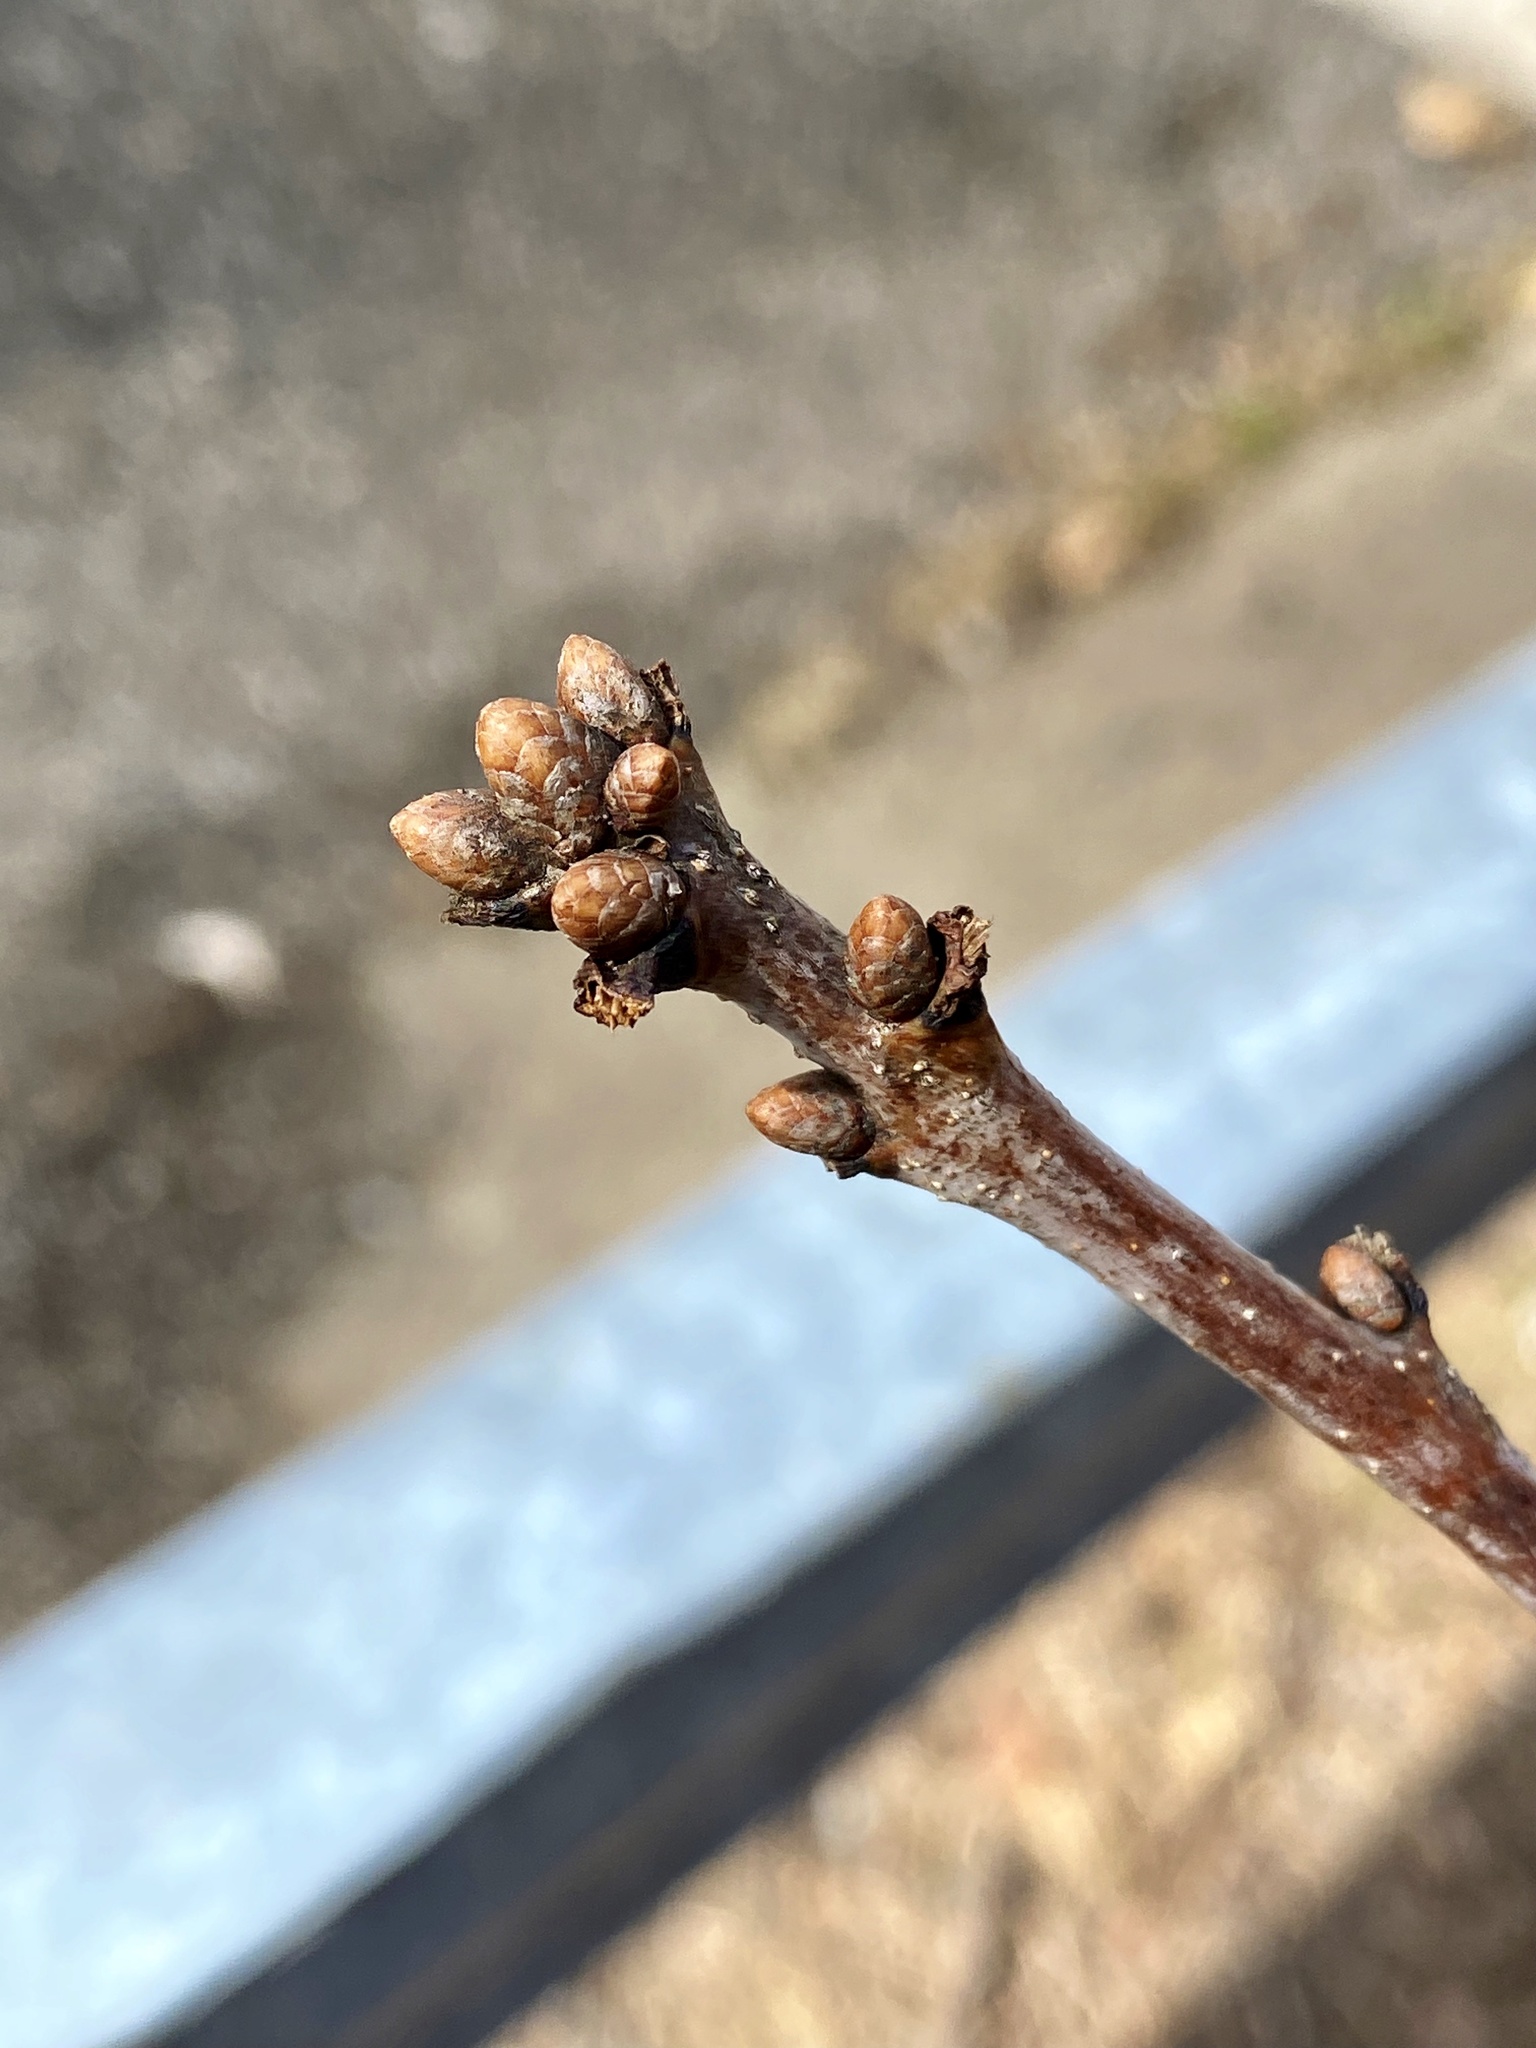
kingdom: Plantae
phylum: Tracheophyta
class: Magnoliopsida
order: Fagales
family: Fagaceae
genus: Quercus
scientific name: Quercus alba
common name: White oak
